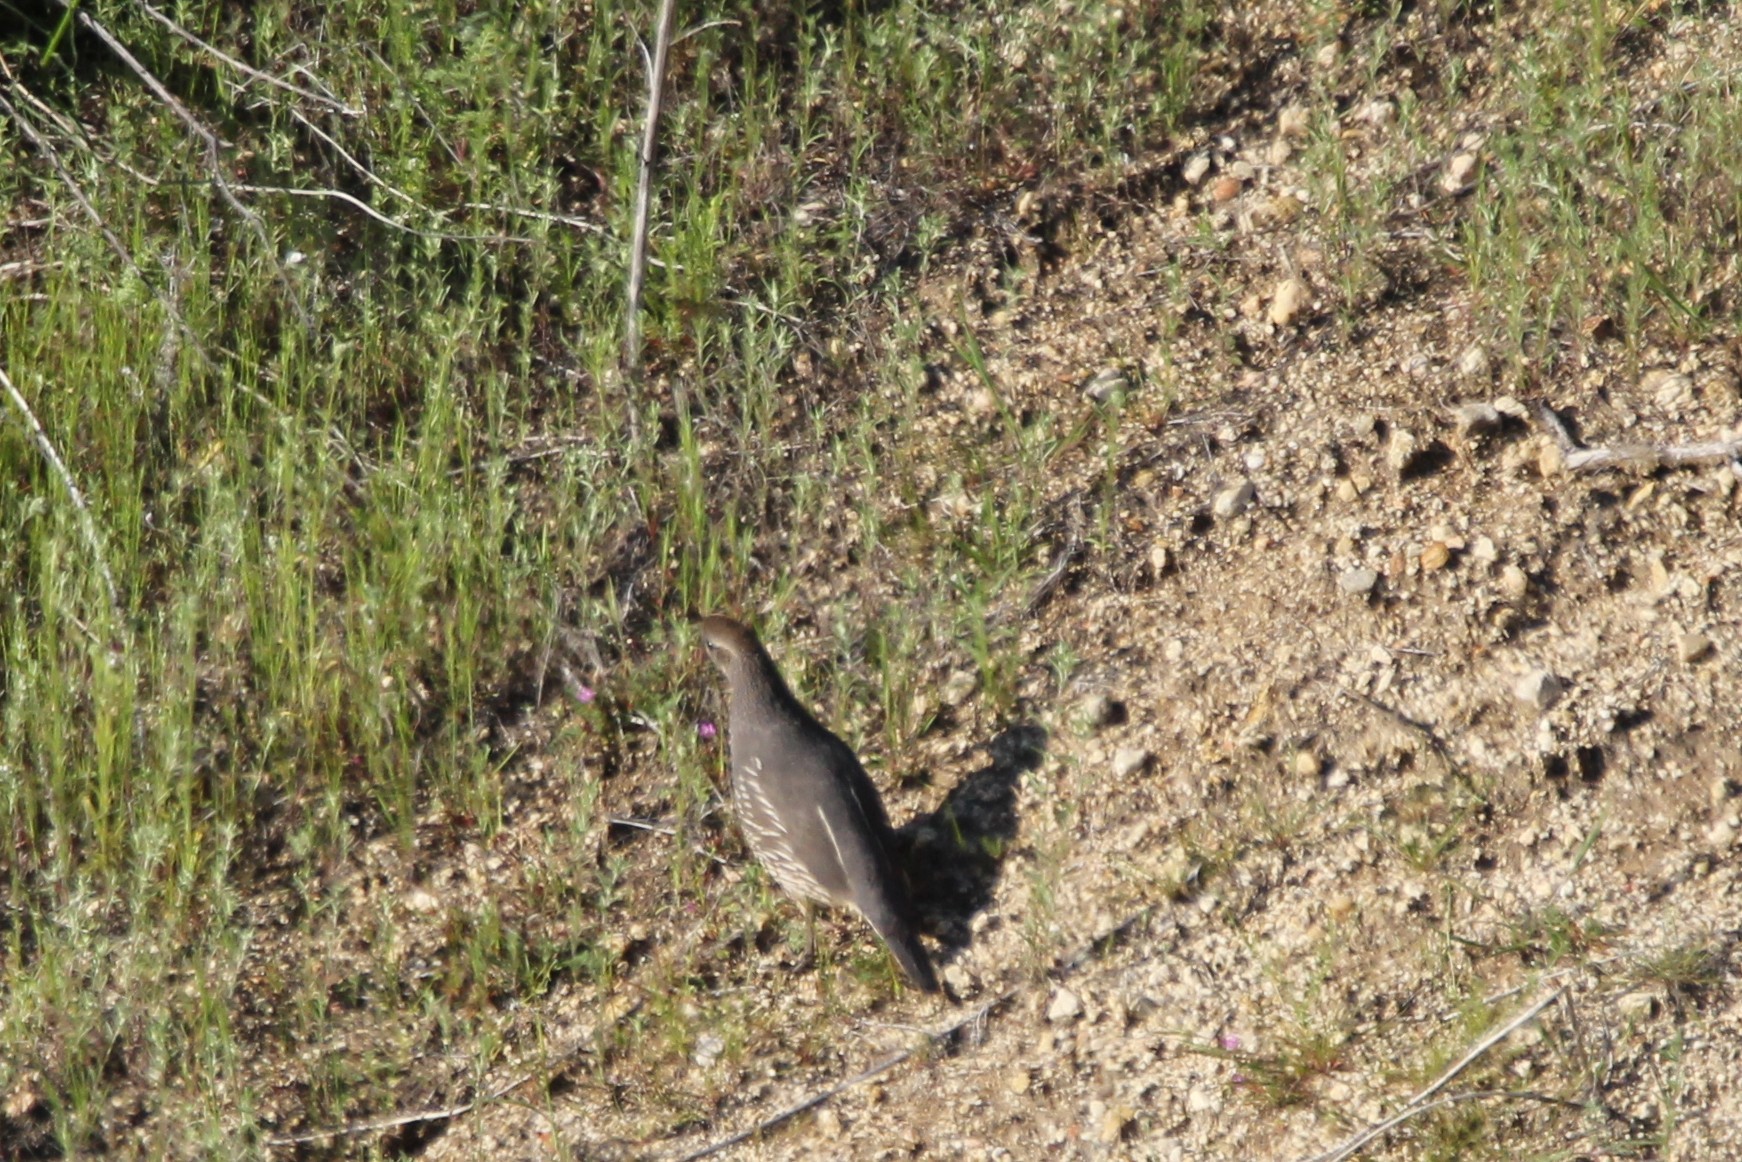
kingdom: Animalia
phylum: Chordata
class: Aves
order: Galliformes
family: Odontophoridae
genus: Callipepla
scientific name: Callipepla californica
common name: California quail
